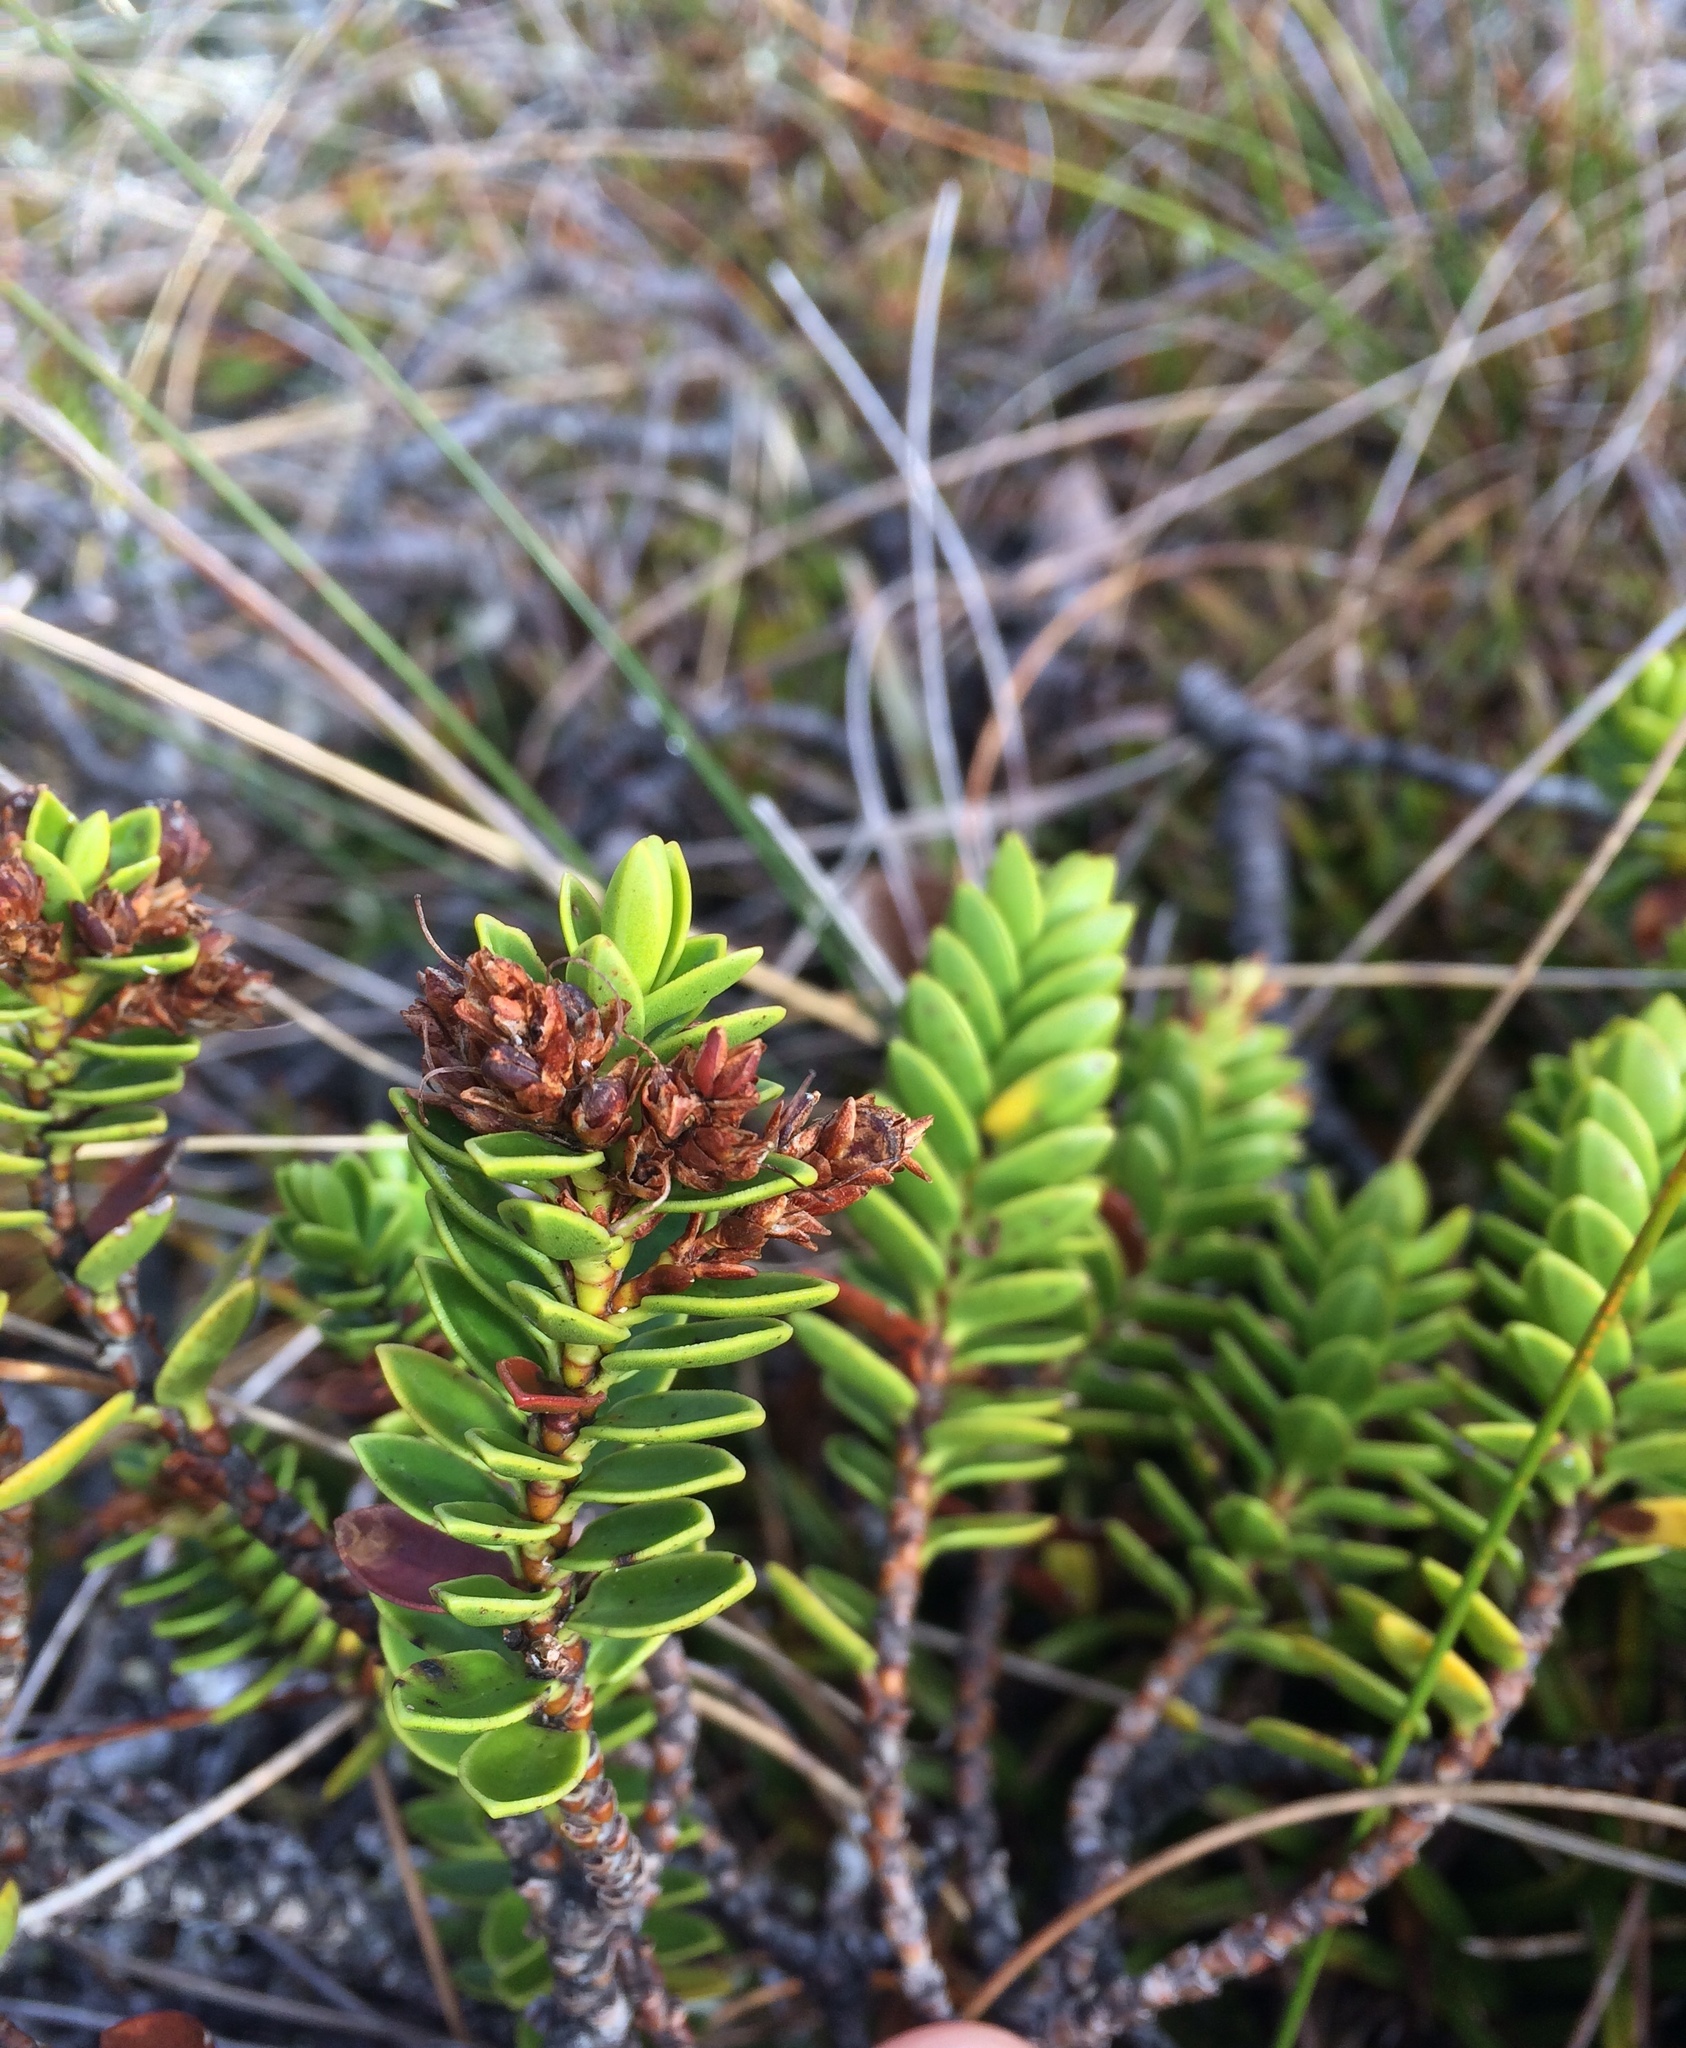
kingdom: Plantae
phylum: Tracheophyta
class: Magnoliopsida
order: Lamiales
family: Plantaginaceae
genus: Veronica
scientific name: Veronica mooreae
